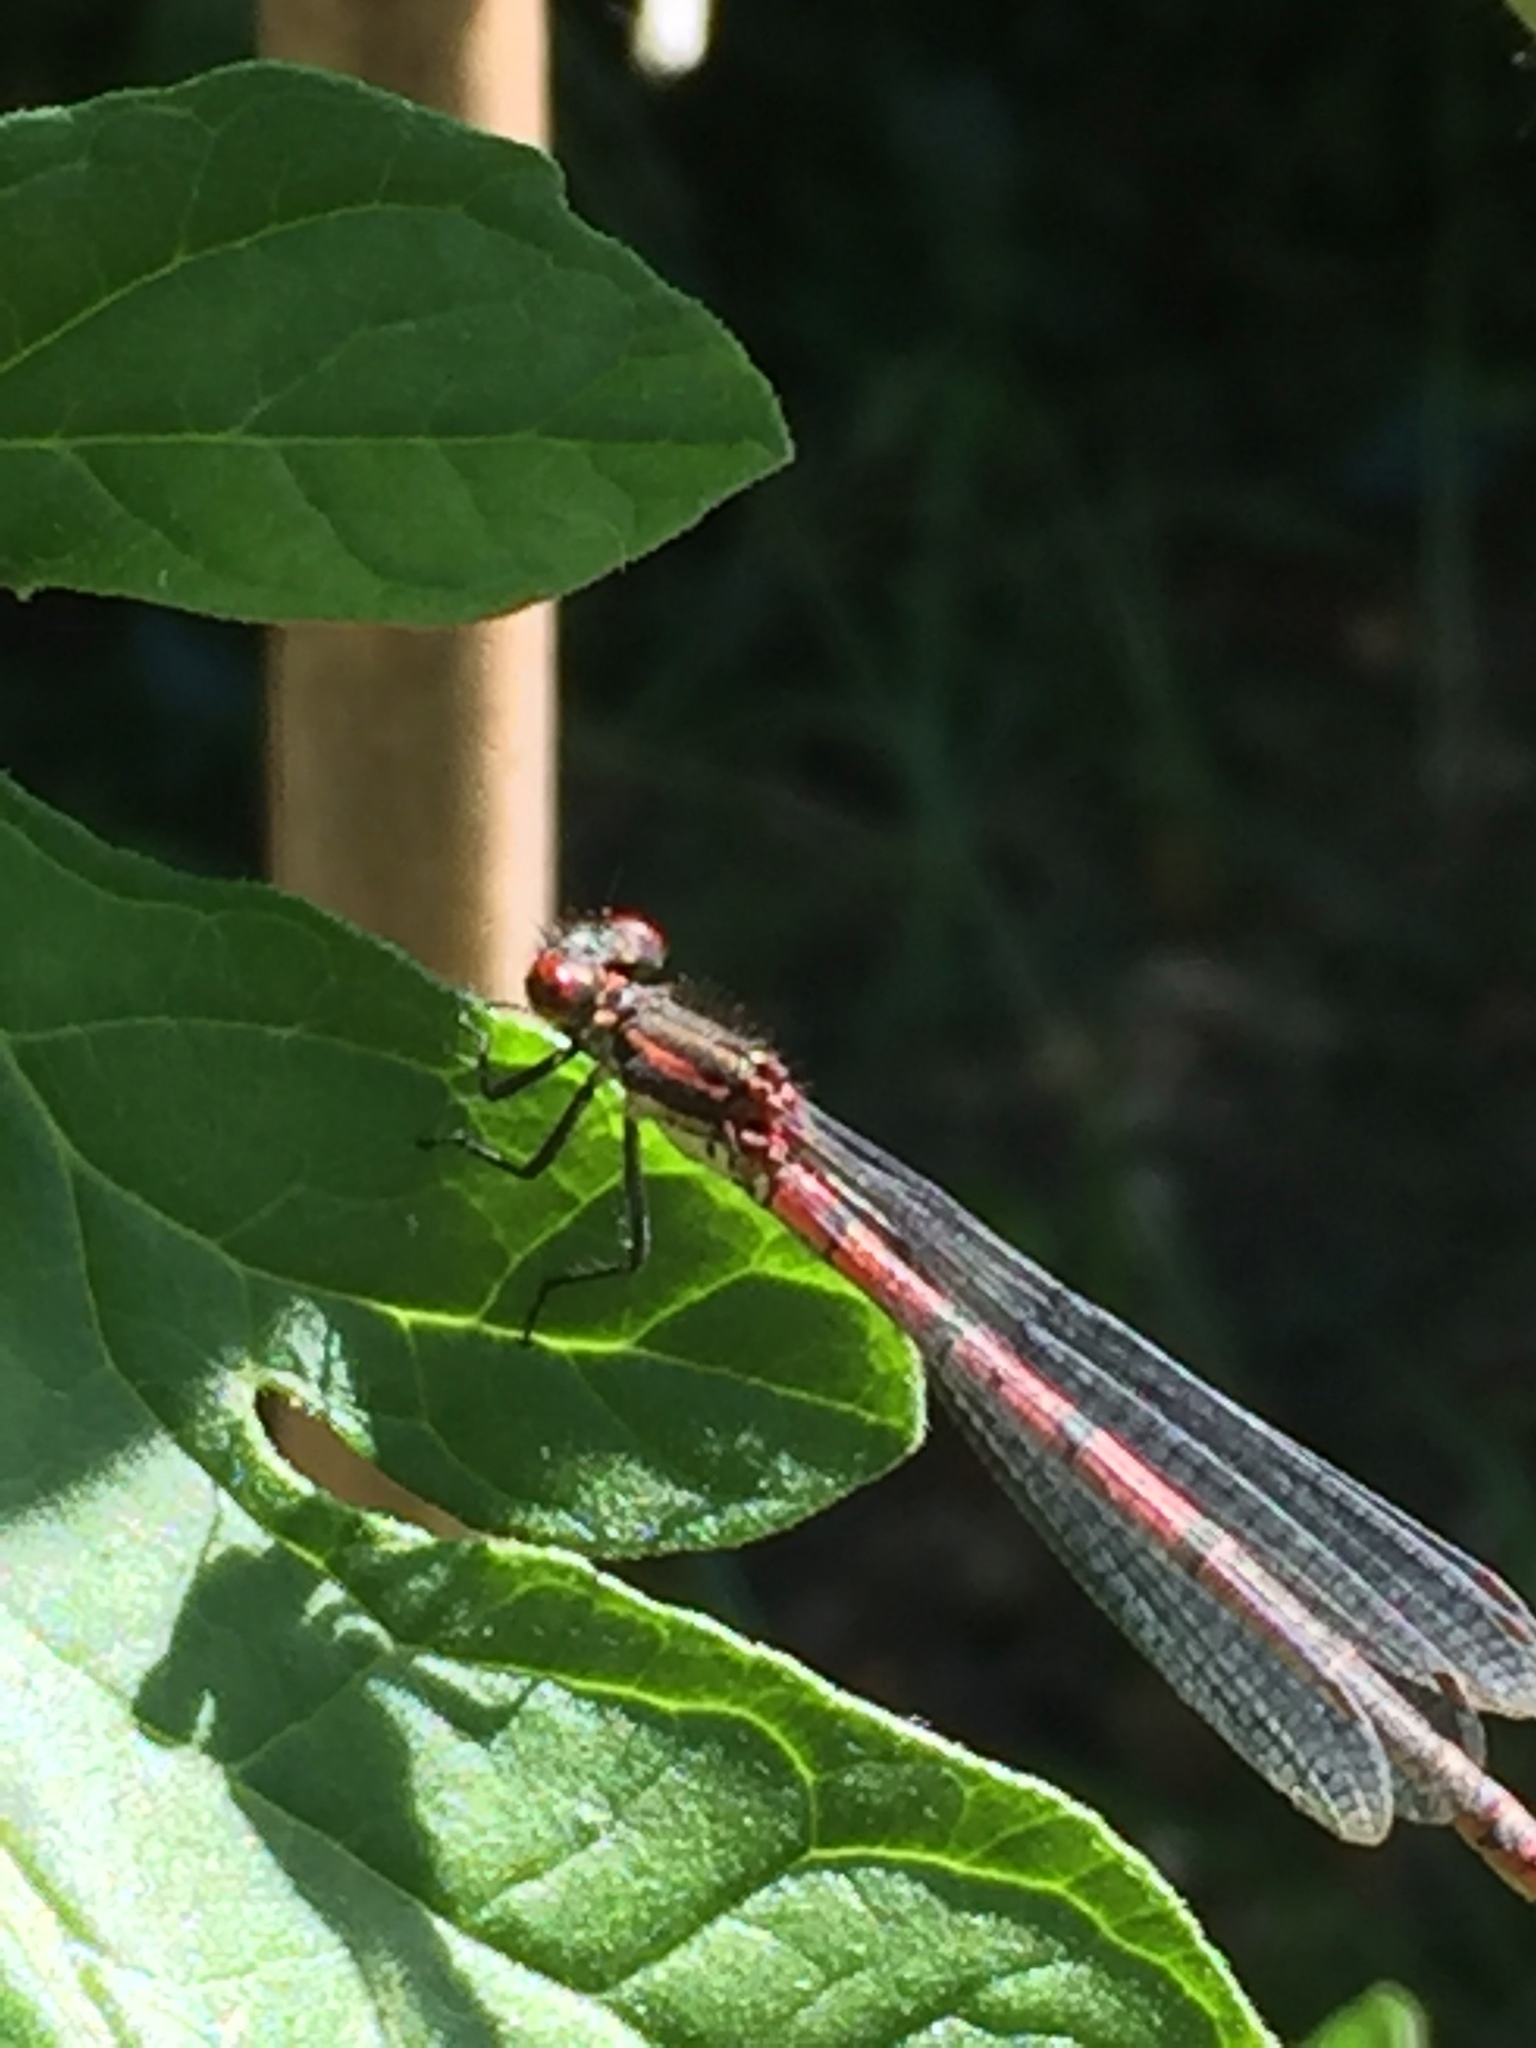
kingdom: Animalia
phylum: Arthropoda
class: Insecta
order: Odonata
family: Coenagrionidae
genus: Pyrrhosoma
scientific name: Pyrrhosoma nymphula
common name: Large red damsel
